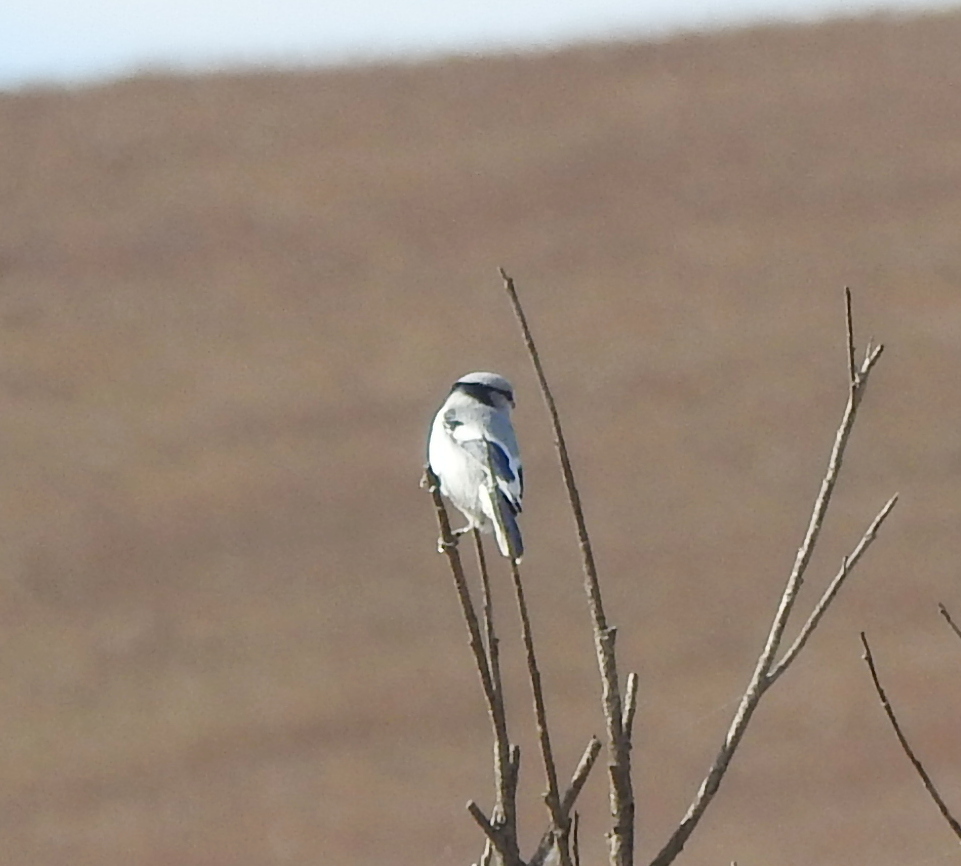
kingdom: Animalia
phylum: Chordata
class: Aves
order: Passeriformes
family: Paridae
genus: Cyanistes
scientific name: Cyanistes cyanus
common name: Azure tit
